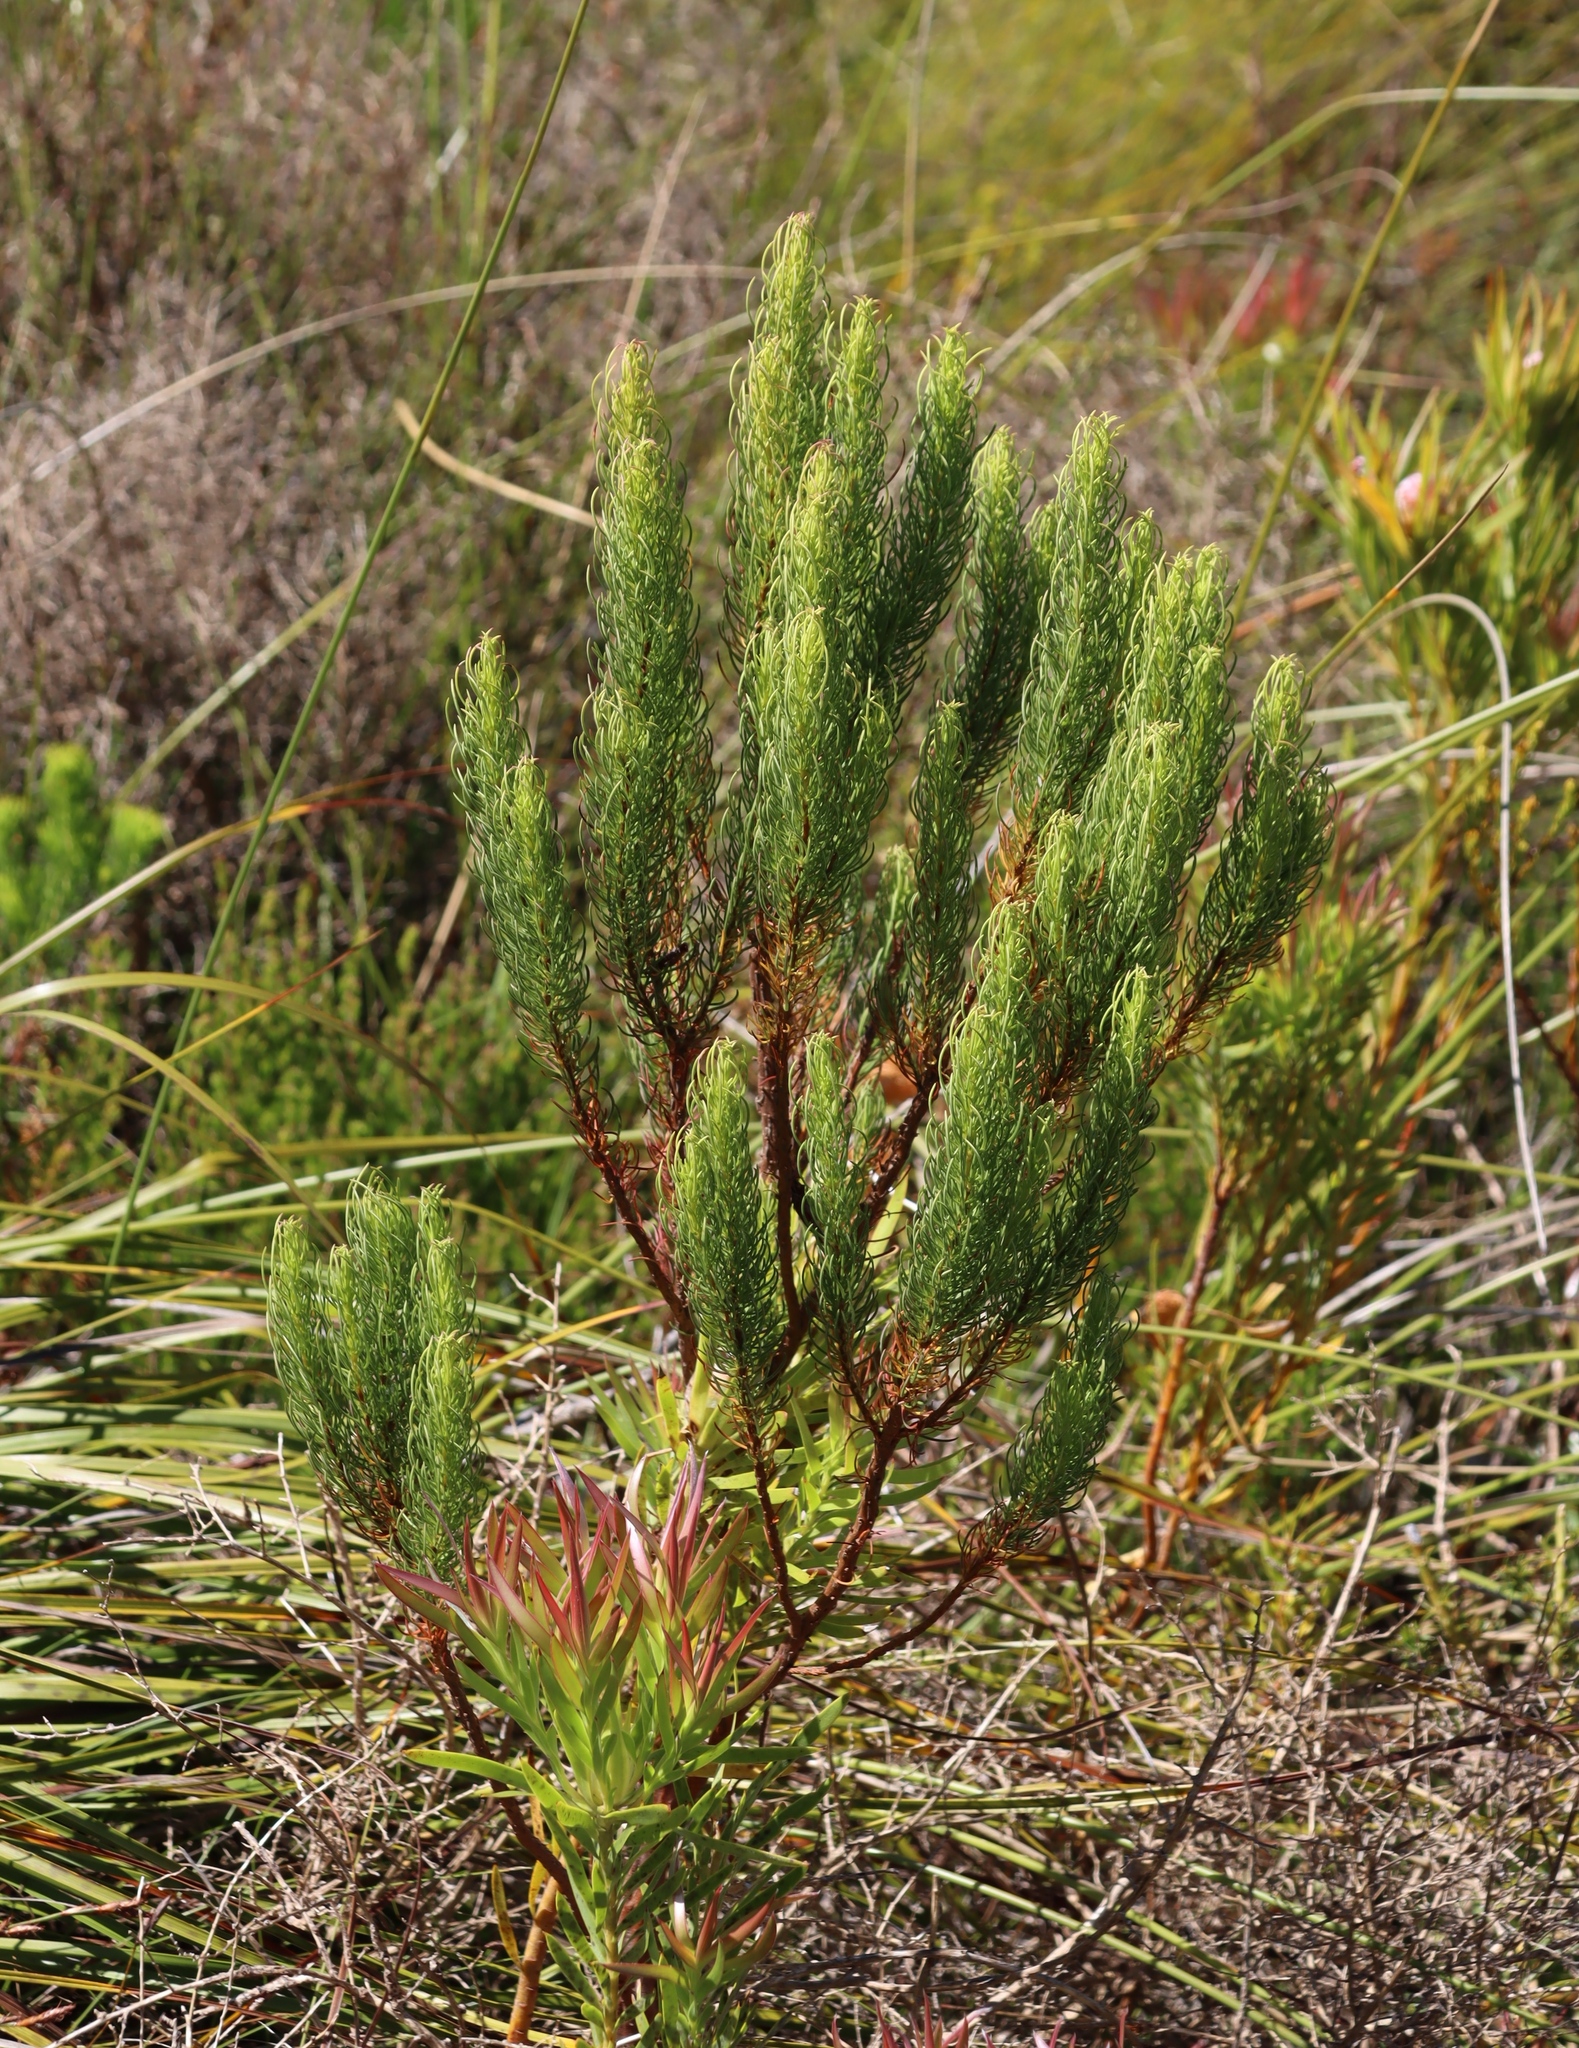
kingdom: Plantae
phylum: Tracheophyta
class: Magnoliopsida
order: Ericales
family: Ericaceae
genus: Erica
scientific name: Erica plukenetii
